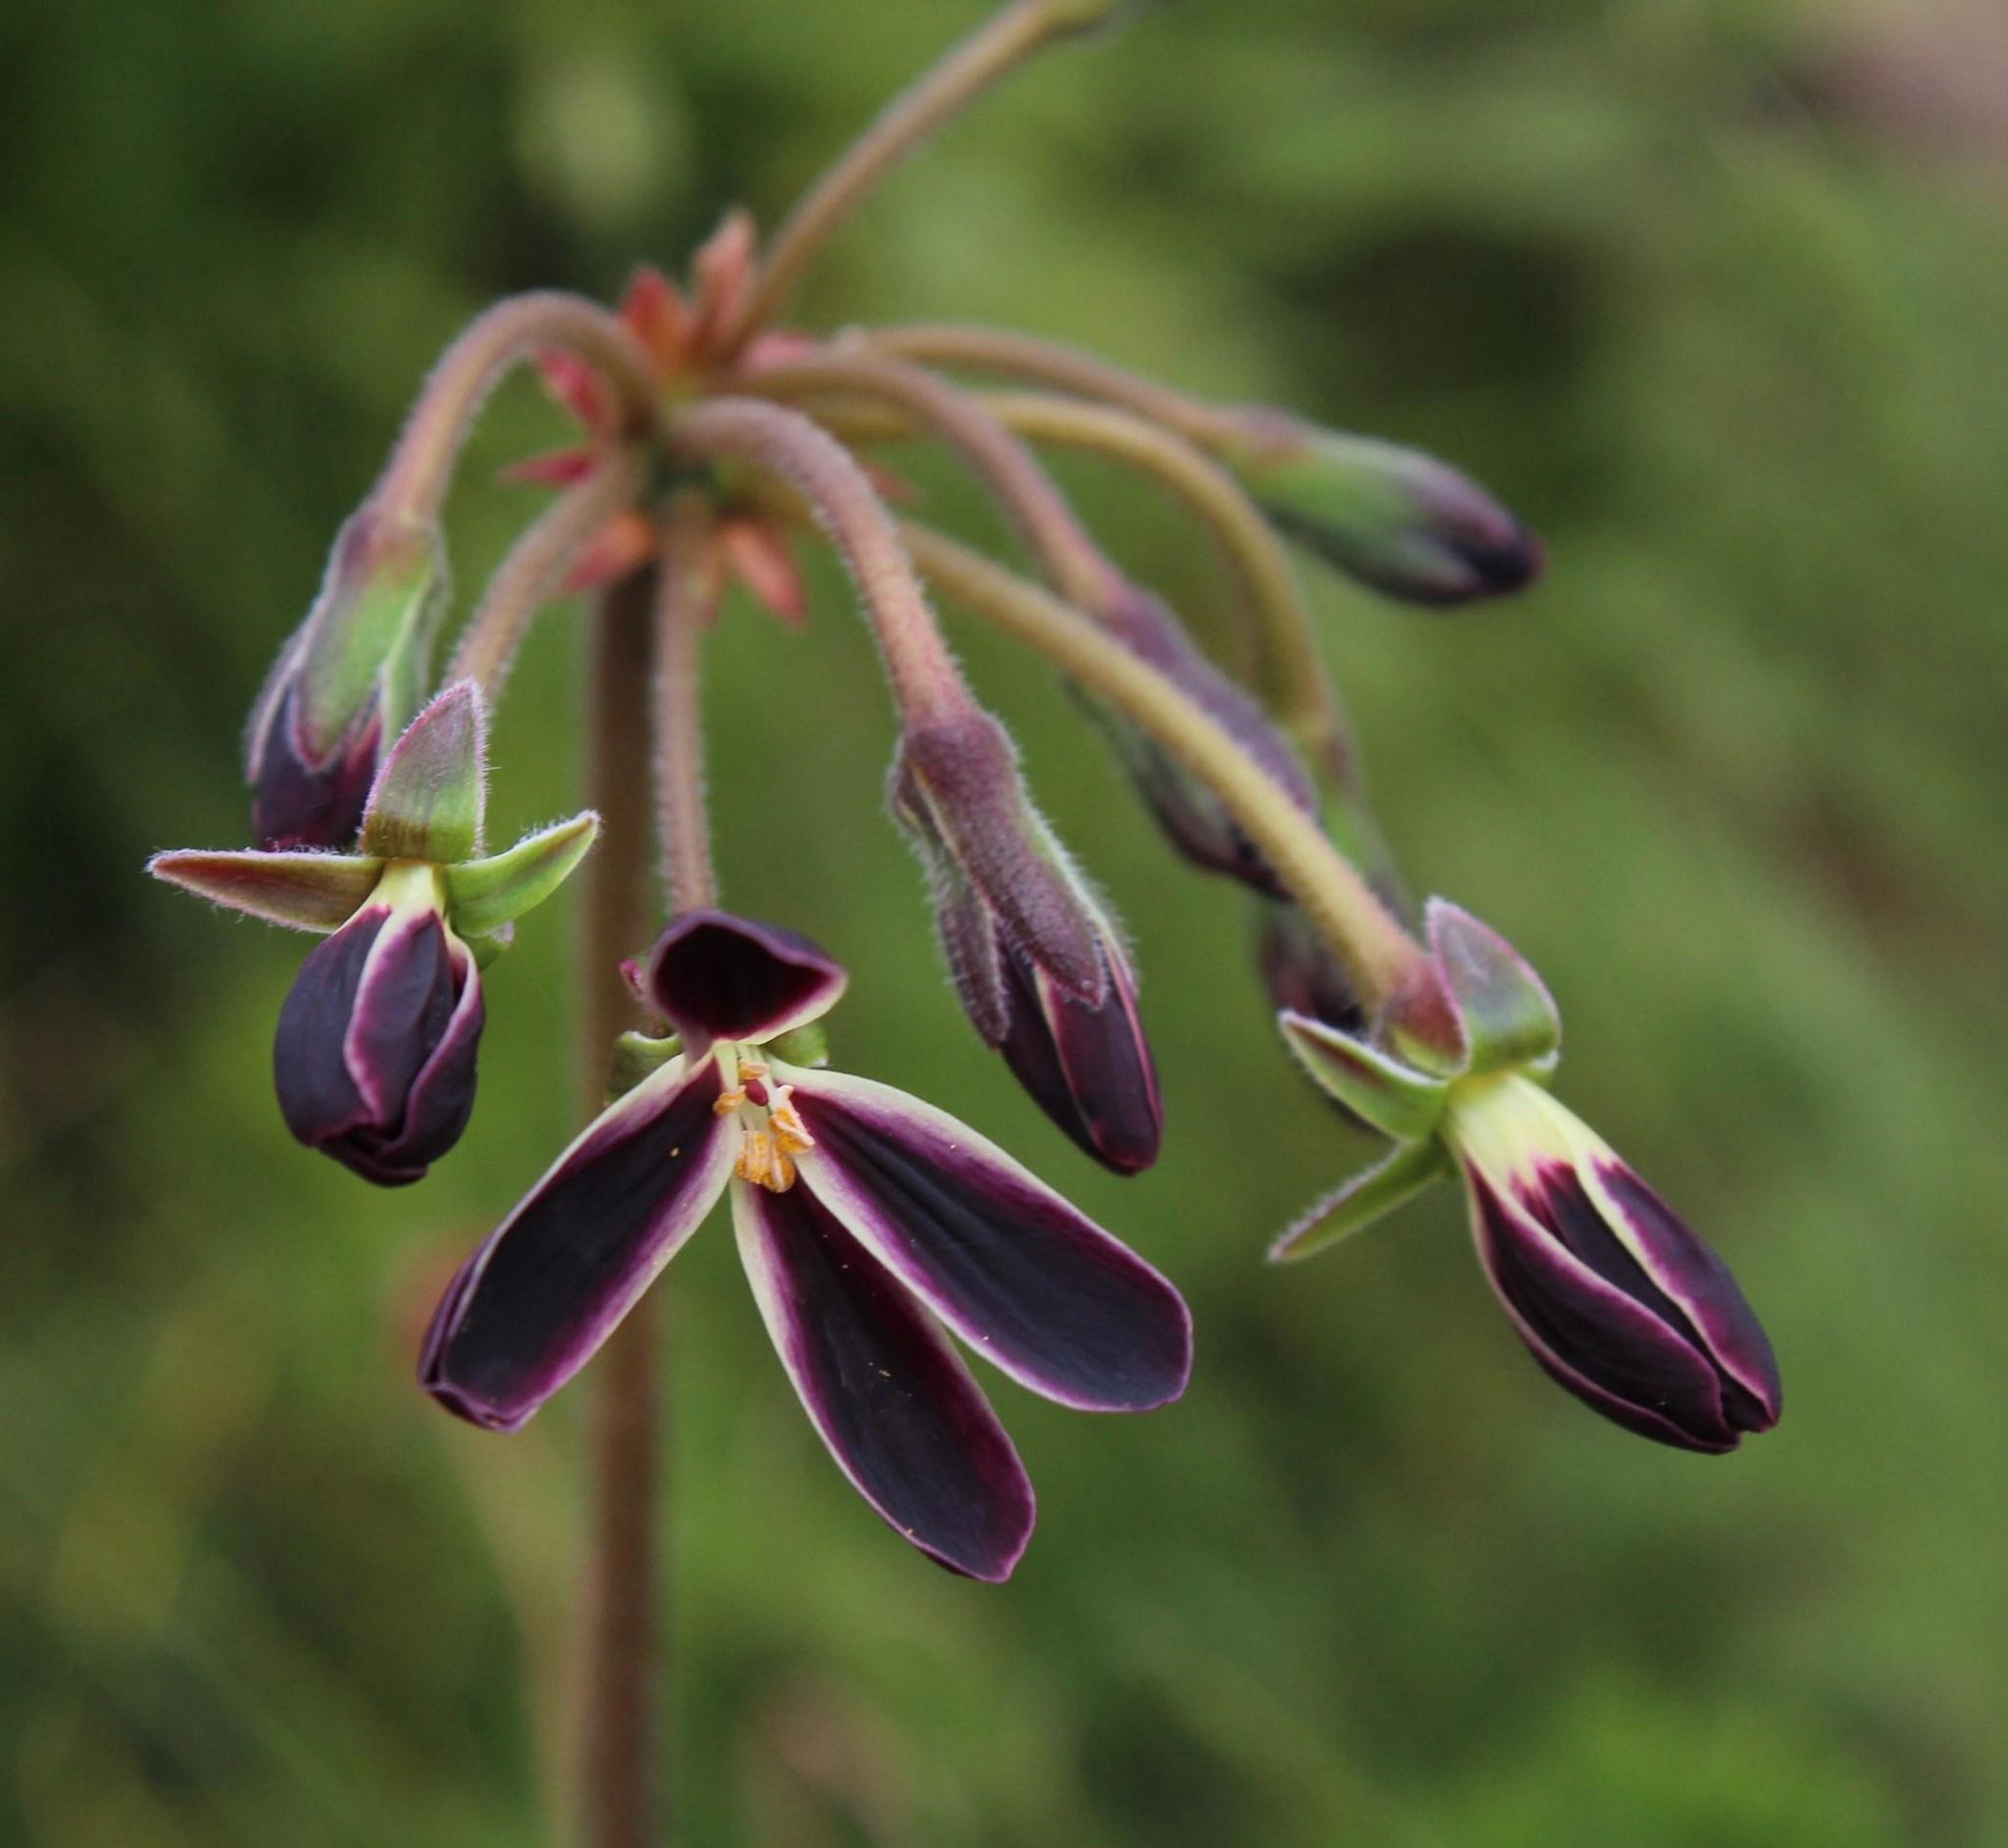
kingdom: Plantae
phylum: Tracheophyta
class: Magnoliopsida
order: Geraniales
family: Geraniaceae
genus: Pelargonium
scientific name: Pelargonium triste
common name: Night-scent pelargonium
